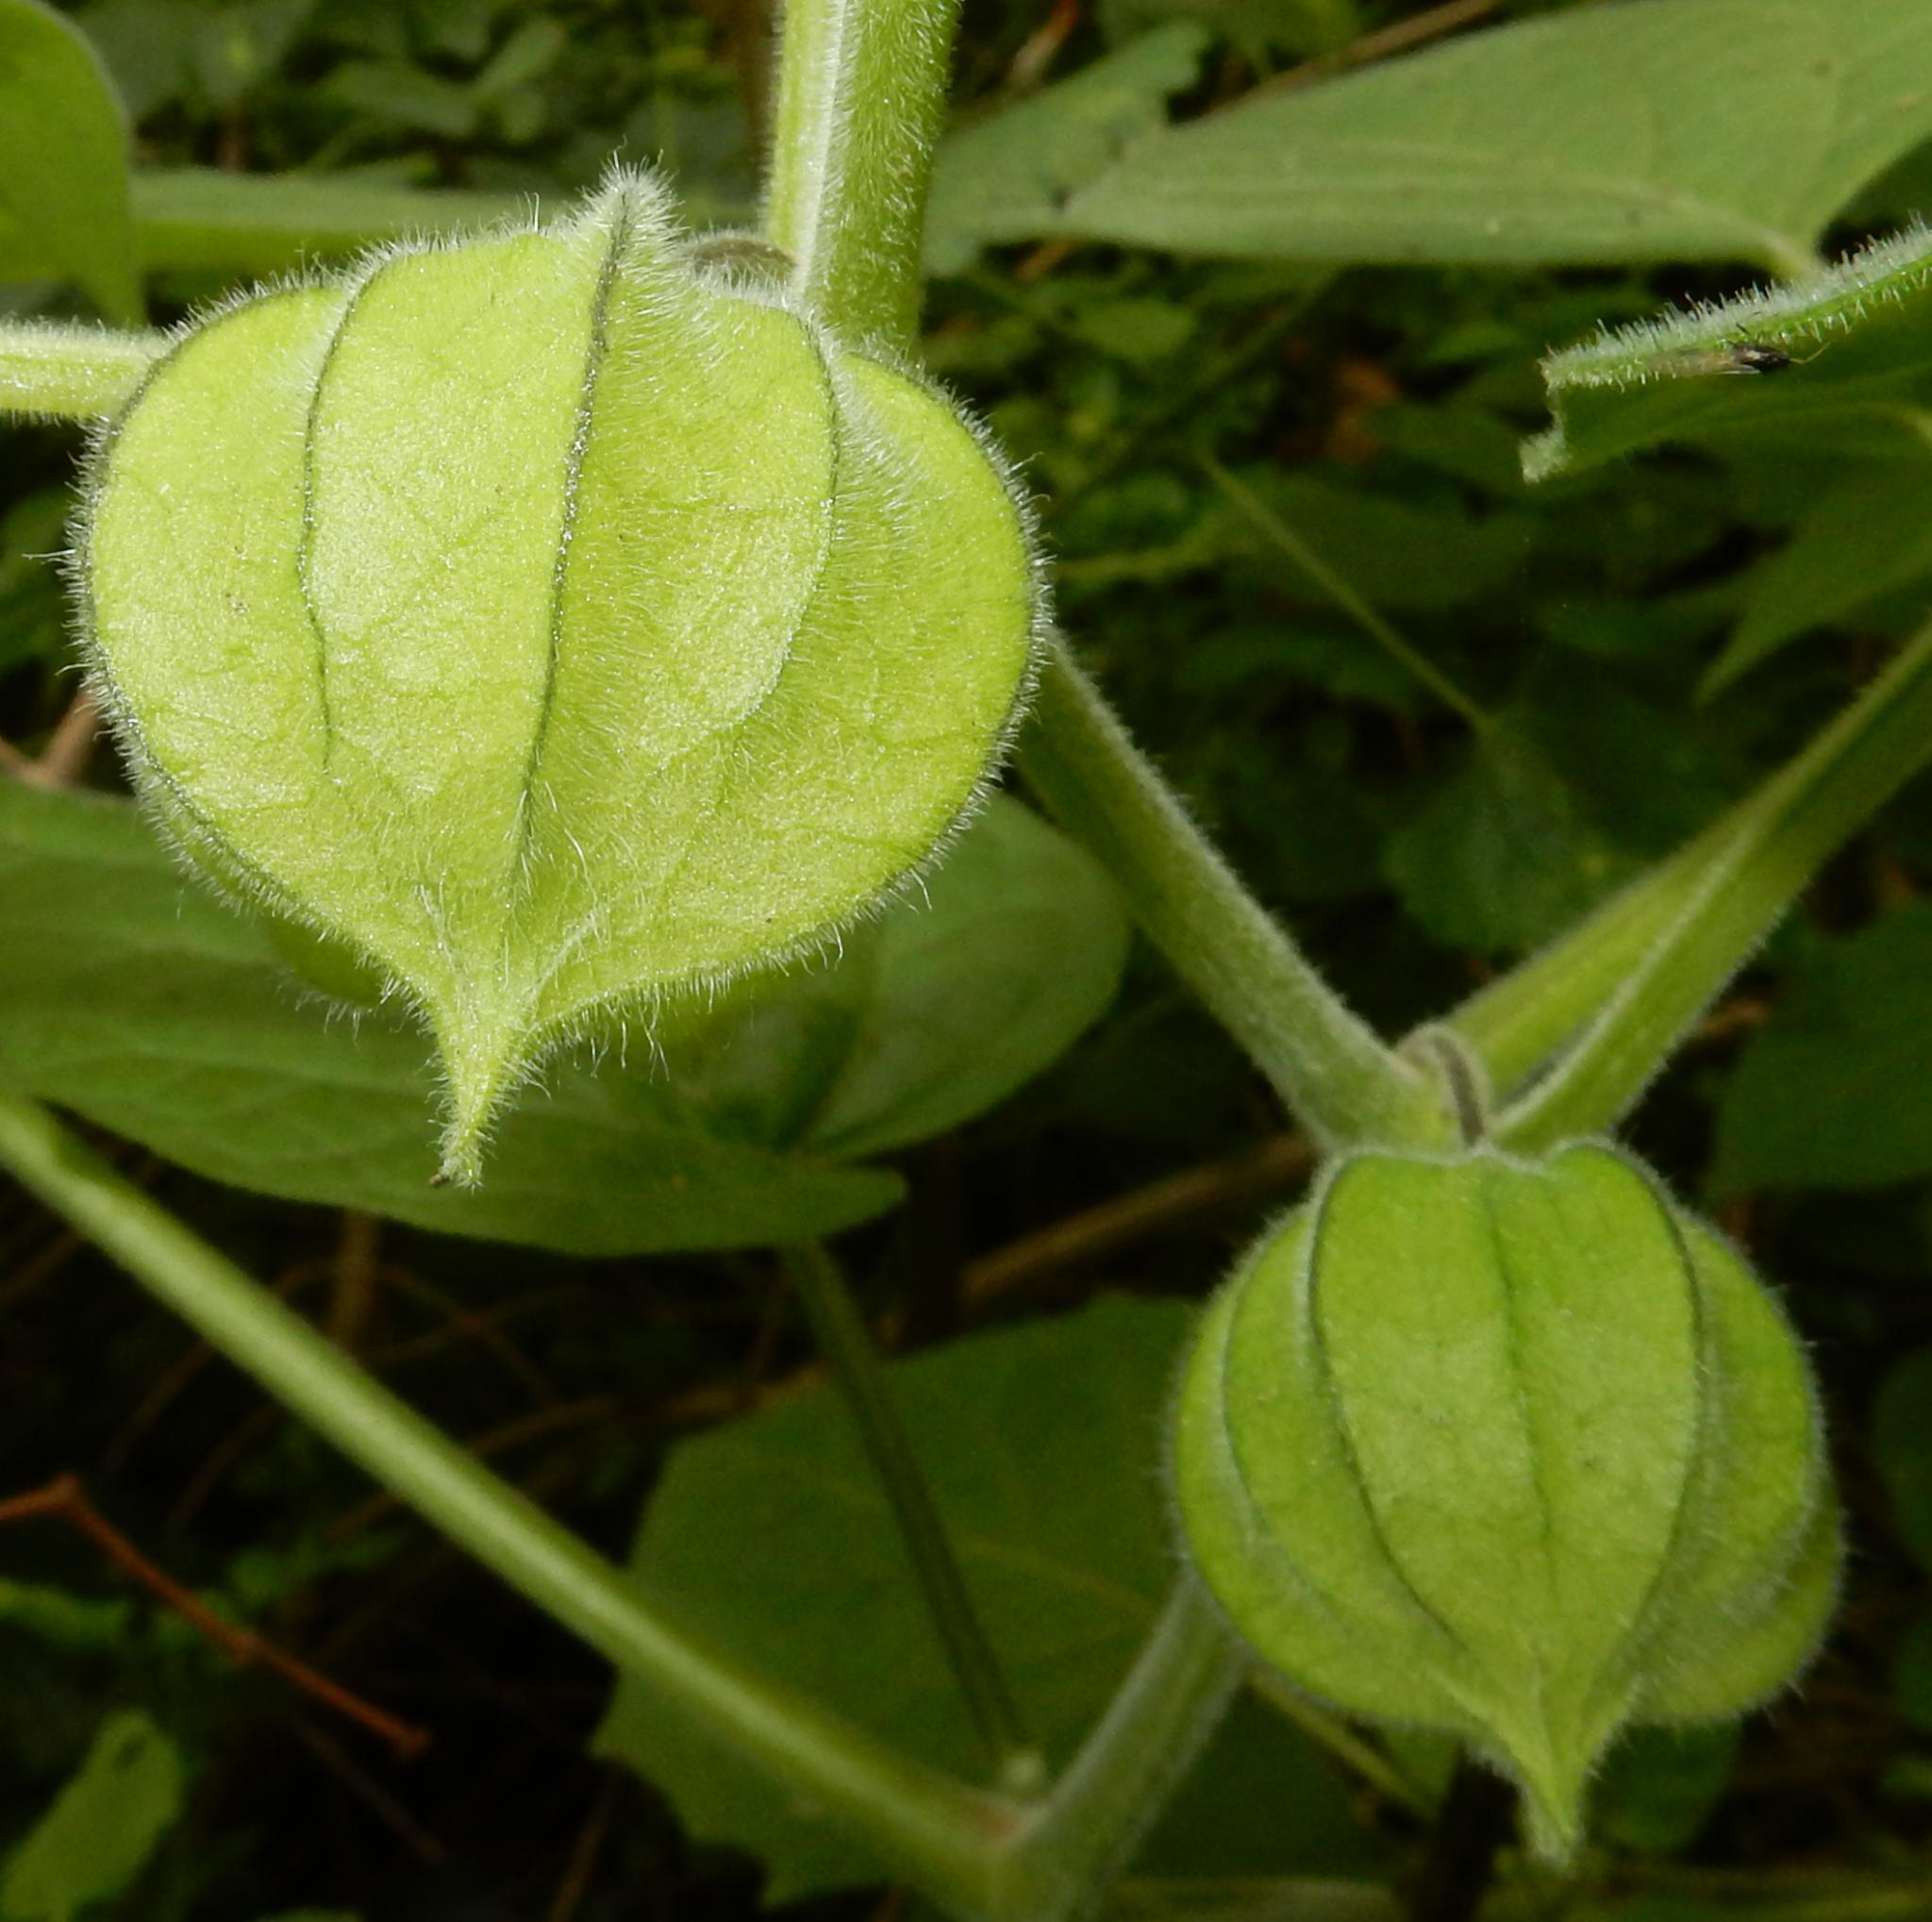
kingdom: Plantae
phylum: Tracheophyta
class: Magnoliopsida
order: Solanales
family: Solanaceae
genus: Physalis
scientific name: Physalis peruviana
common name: Cape-gooseberry
